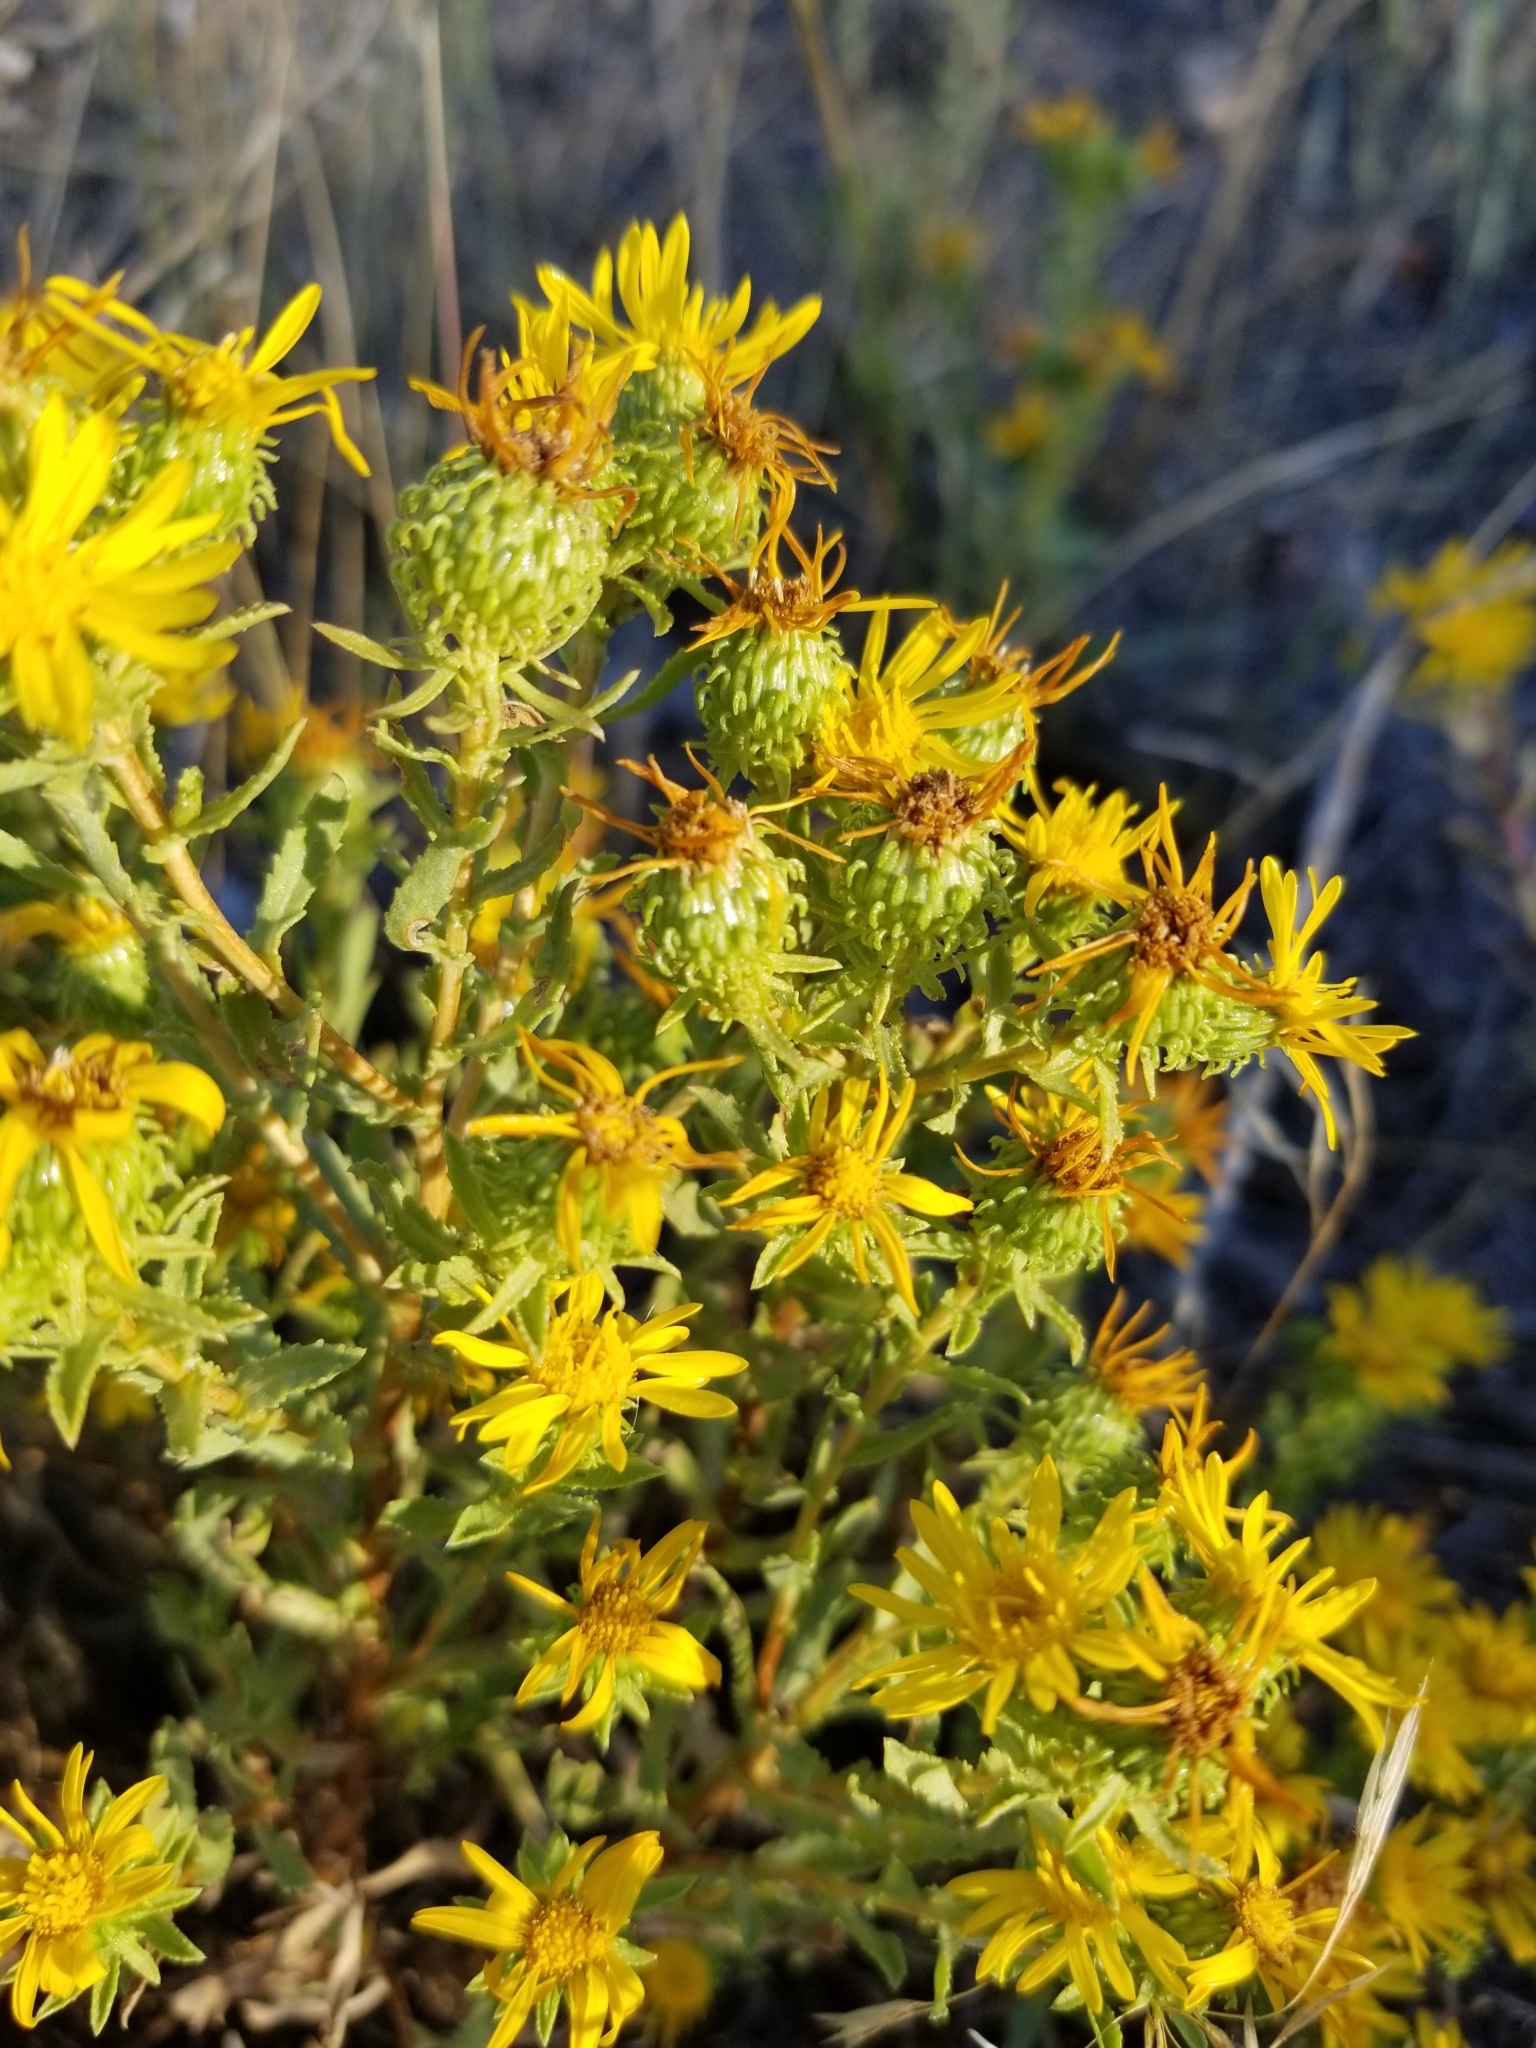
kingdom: Plantae
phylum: Tracheophyta
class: Magnoliopsida
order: Asterales
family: Asteraceae
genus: Grindelia
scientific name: Grindelia squarrosa
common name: Curly-cup gumweed
